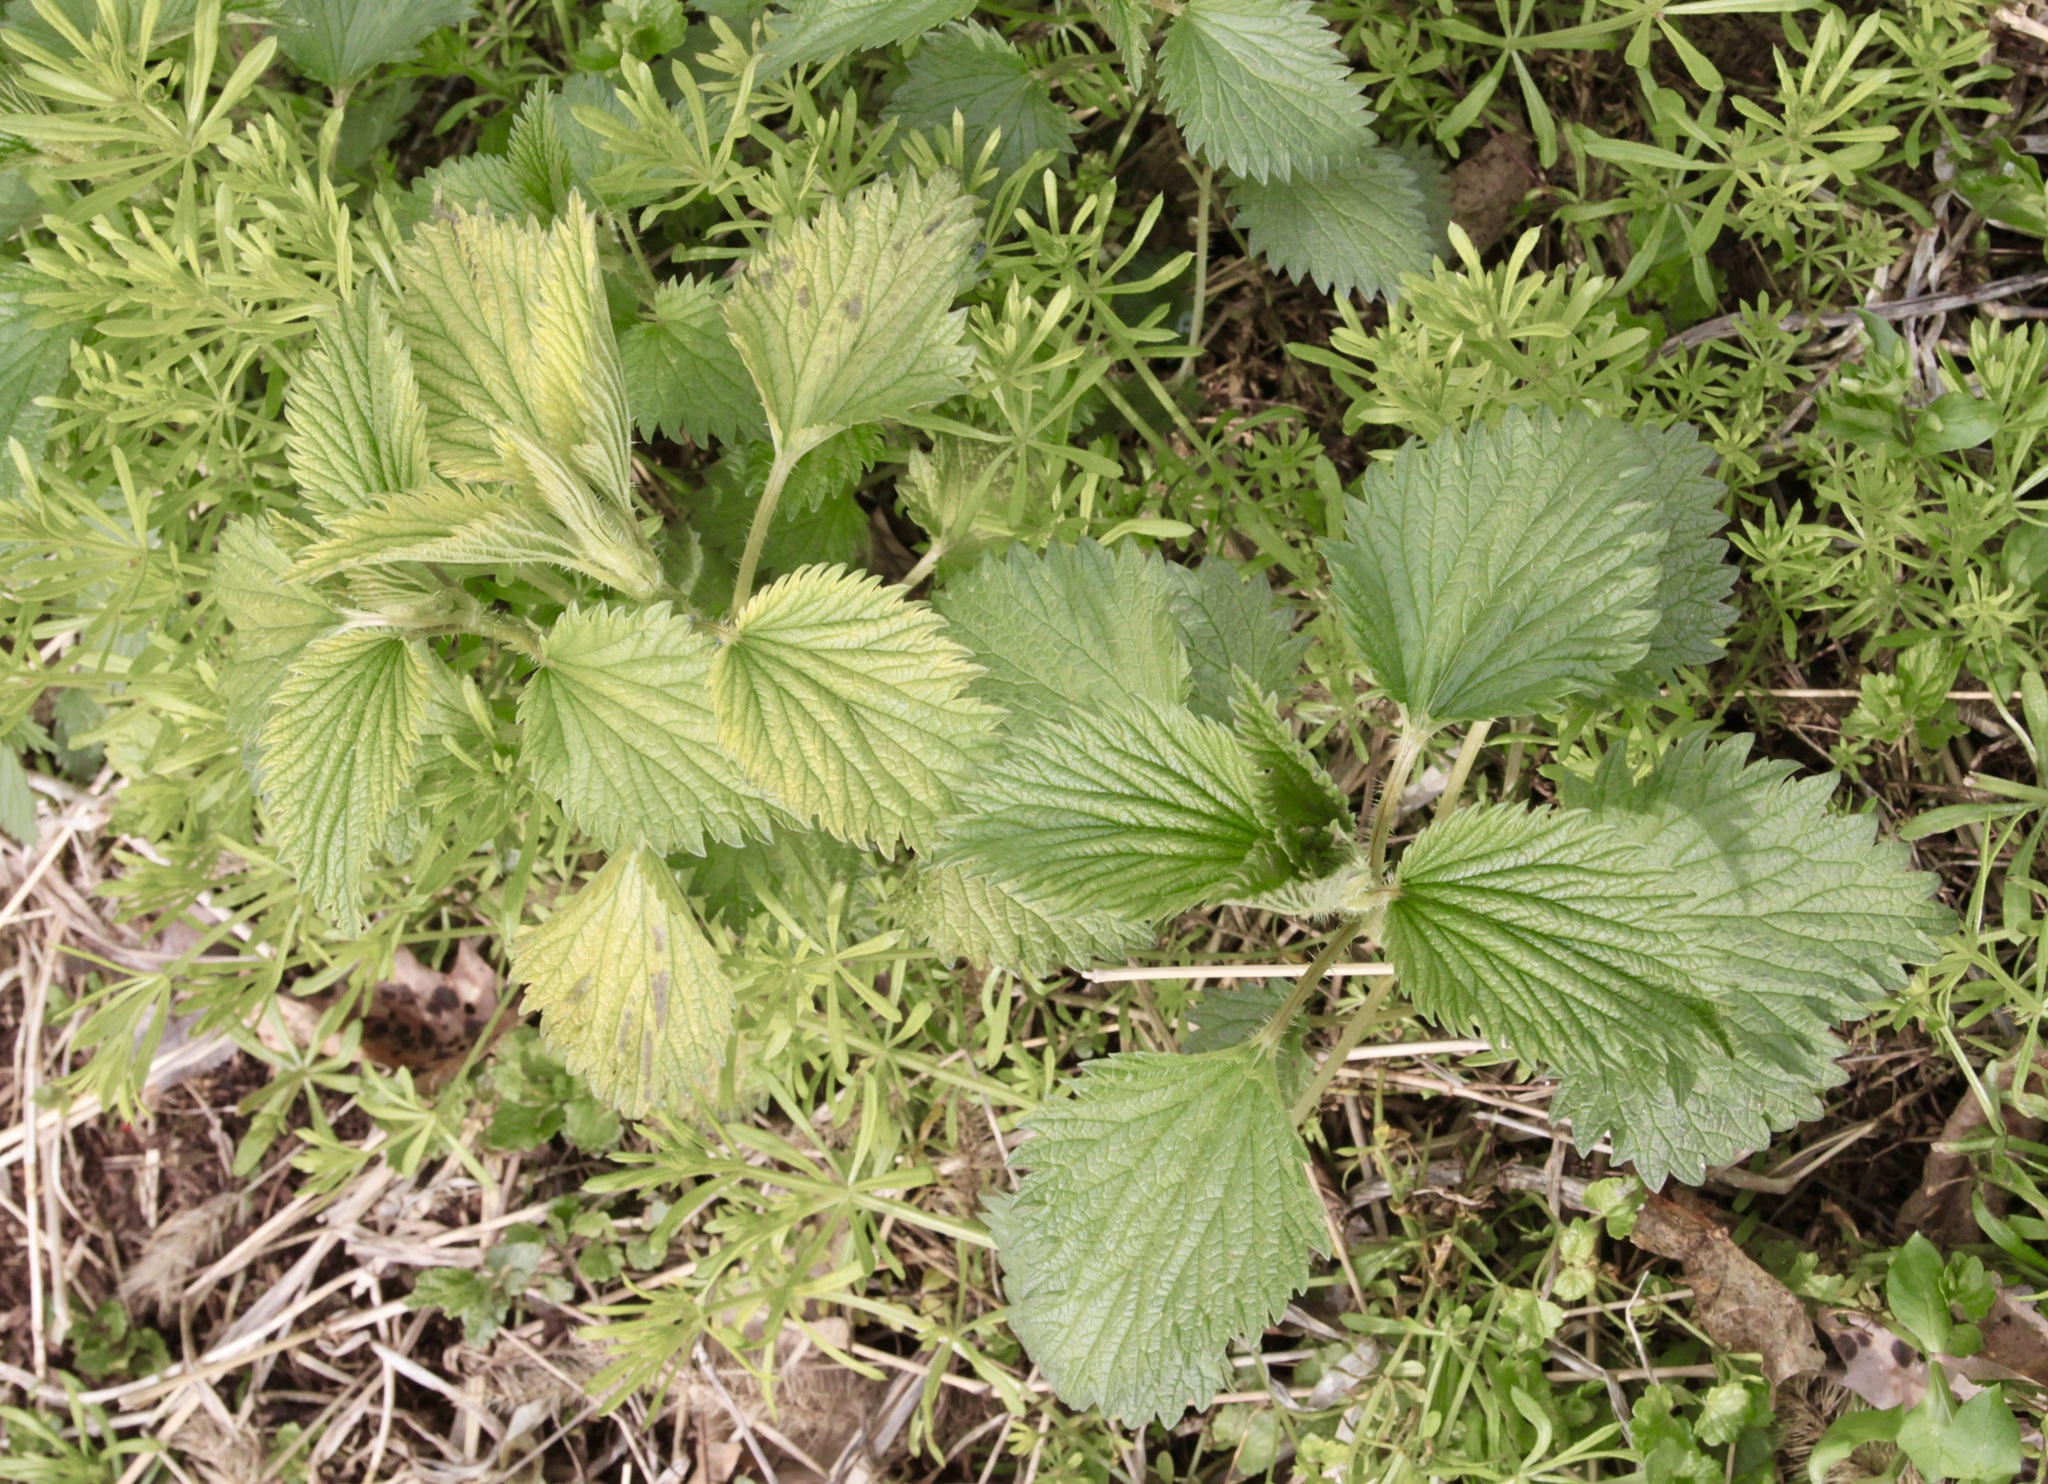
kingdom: Plantae
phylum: Tracheophyta
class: Magnoliopsida
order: Rosales
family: Urticaceae
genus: Urtica
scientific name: Urtica dioica
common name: Common nettle
